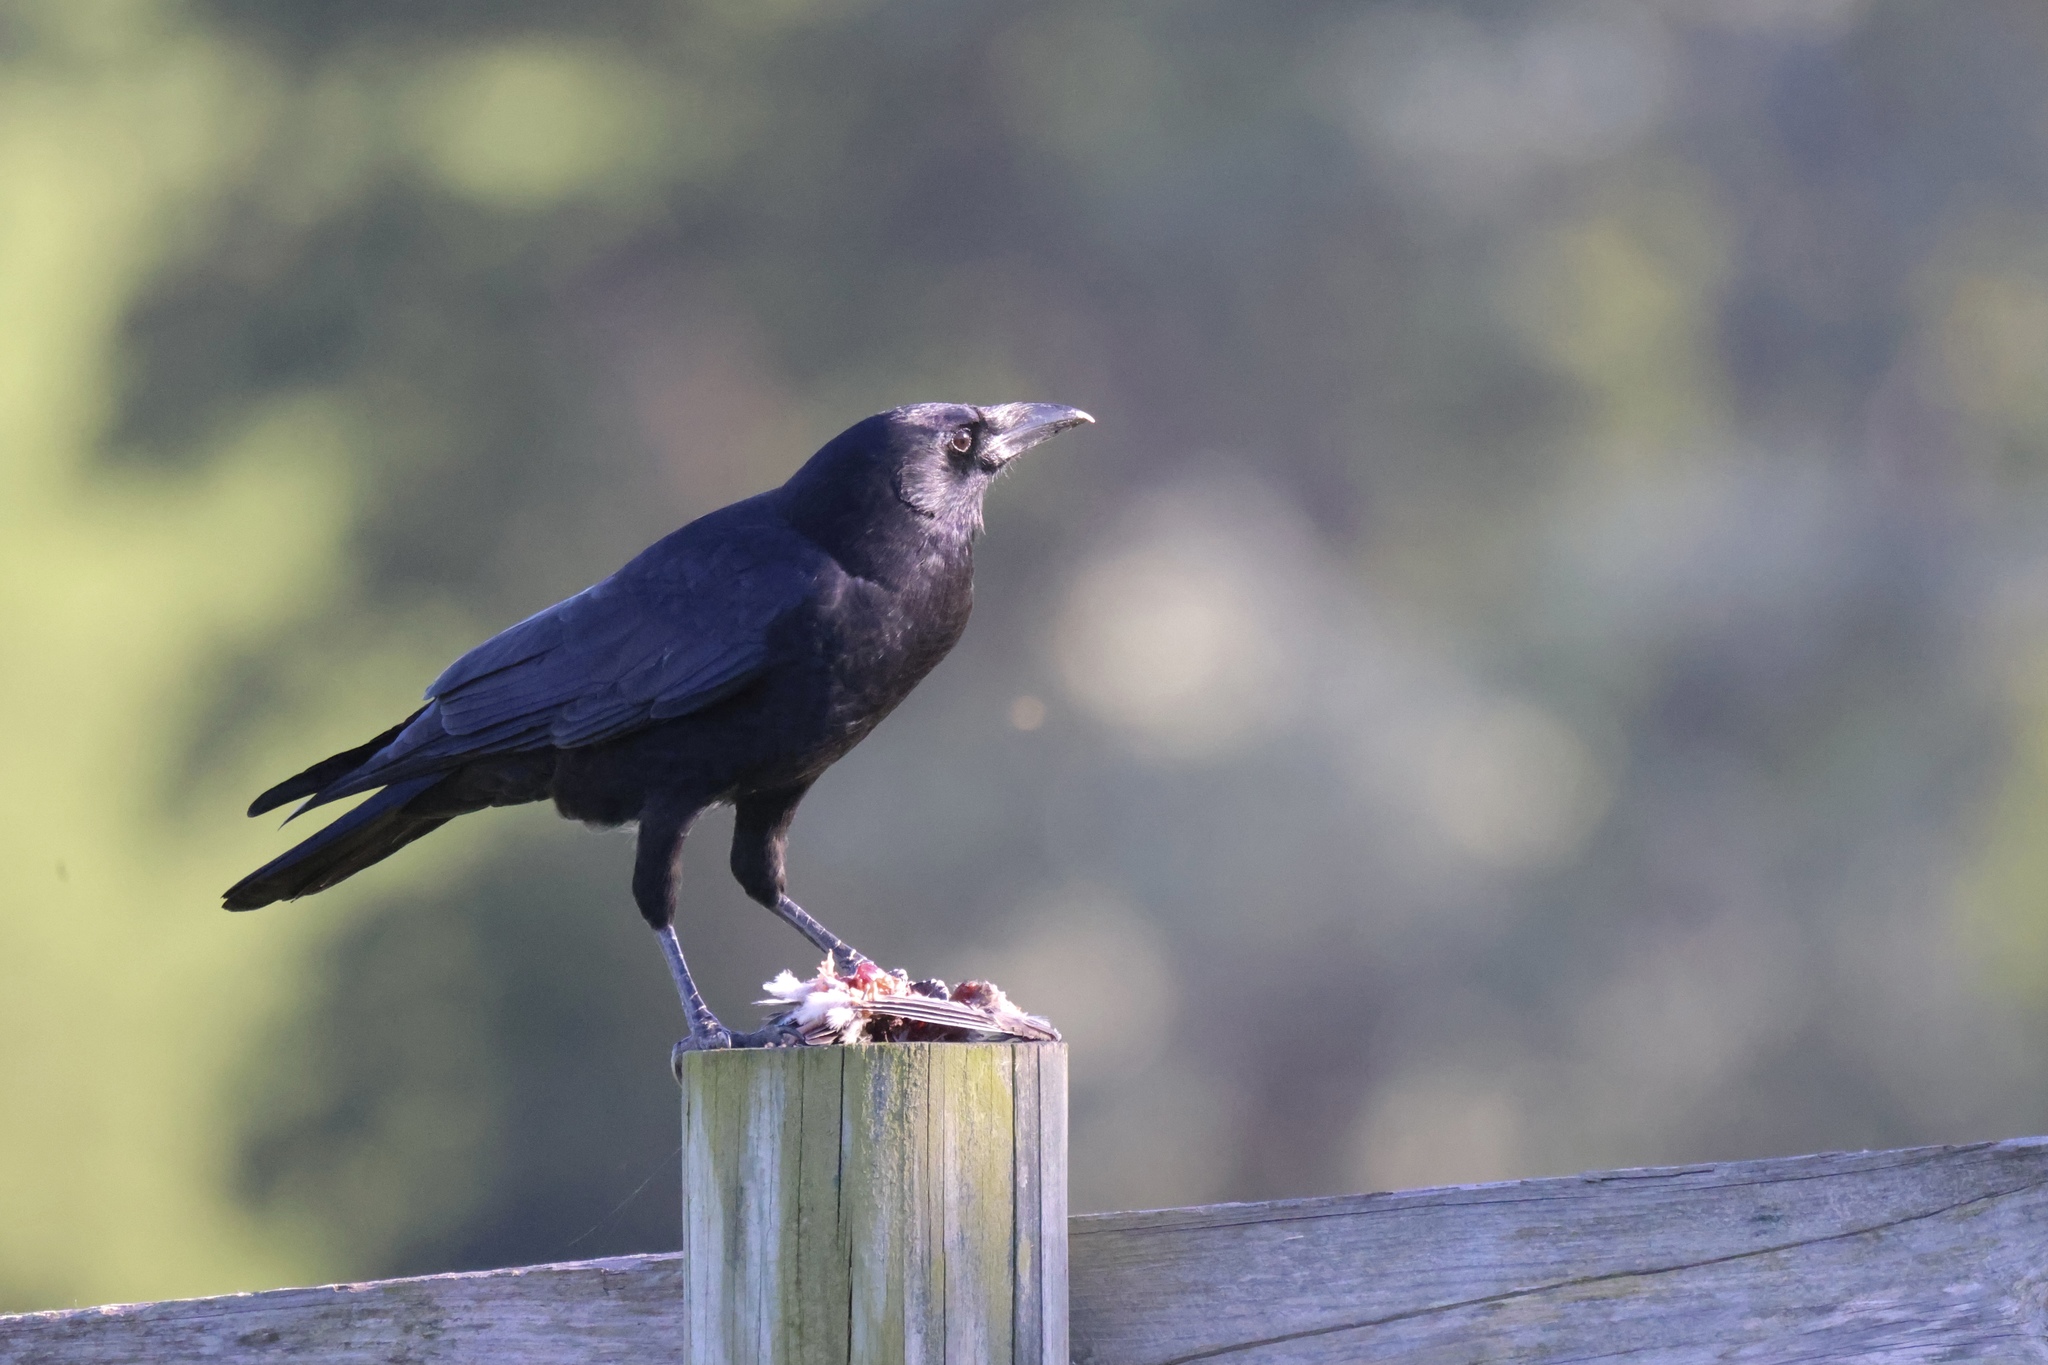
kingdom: Animalia
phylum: Chordata
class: Aves
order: Passeriformes
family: Corvidae
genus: Corvus
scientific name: Corvus brachyrhynchos
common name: American crow
